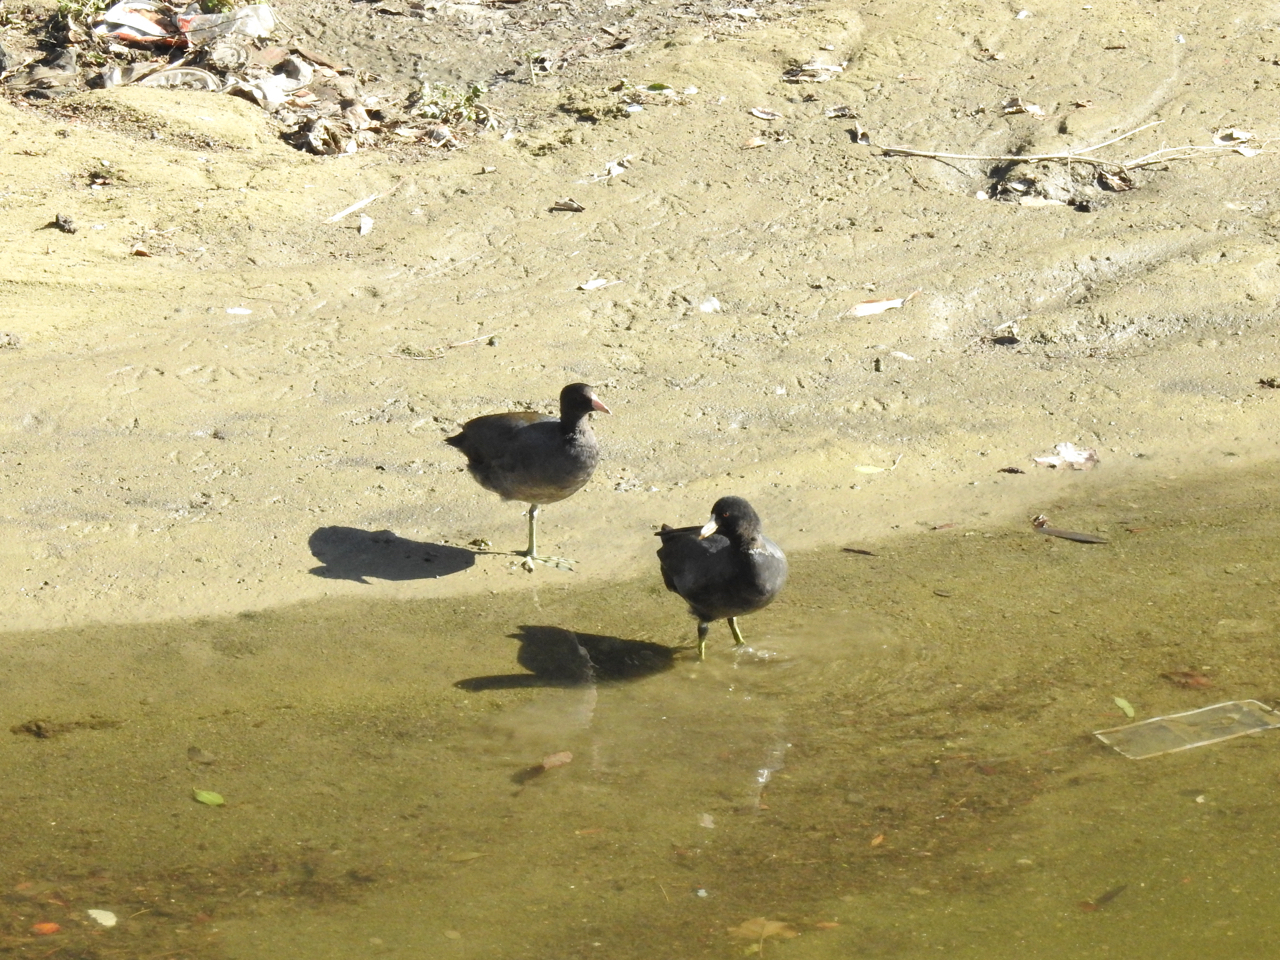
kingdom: Animalia
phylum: Chordata
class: Aves
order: Gruiformes
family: Rallidae
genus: Fulica
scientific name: Fulica americana
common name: American coot
